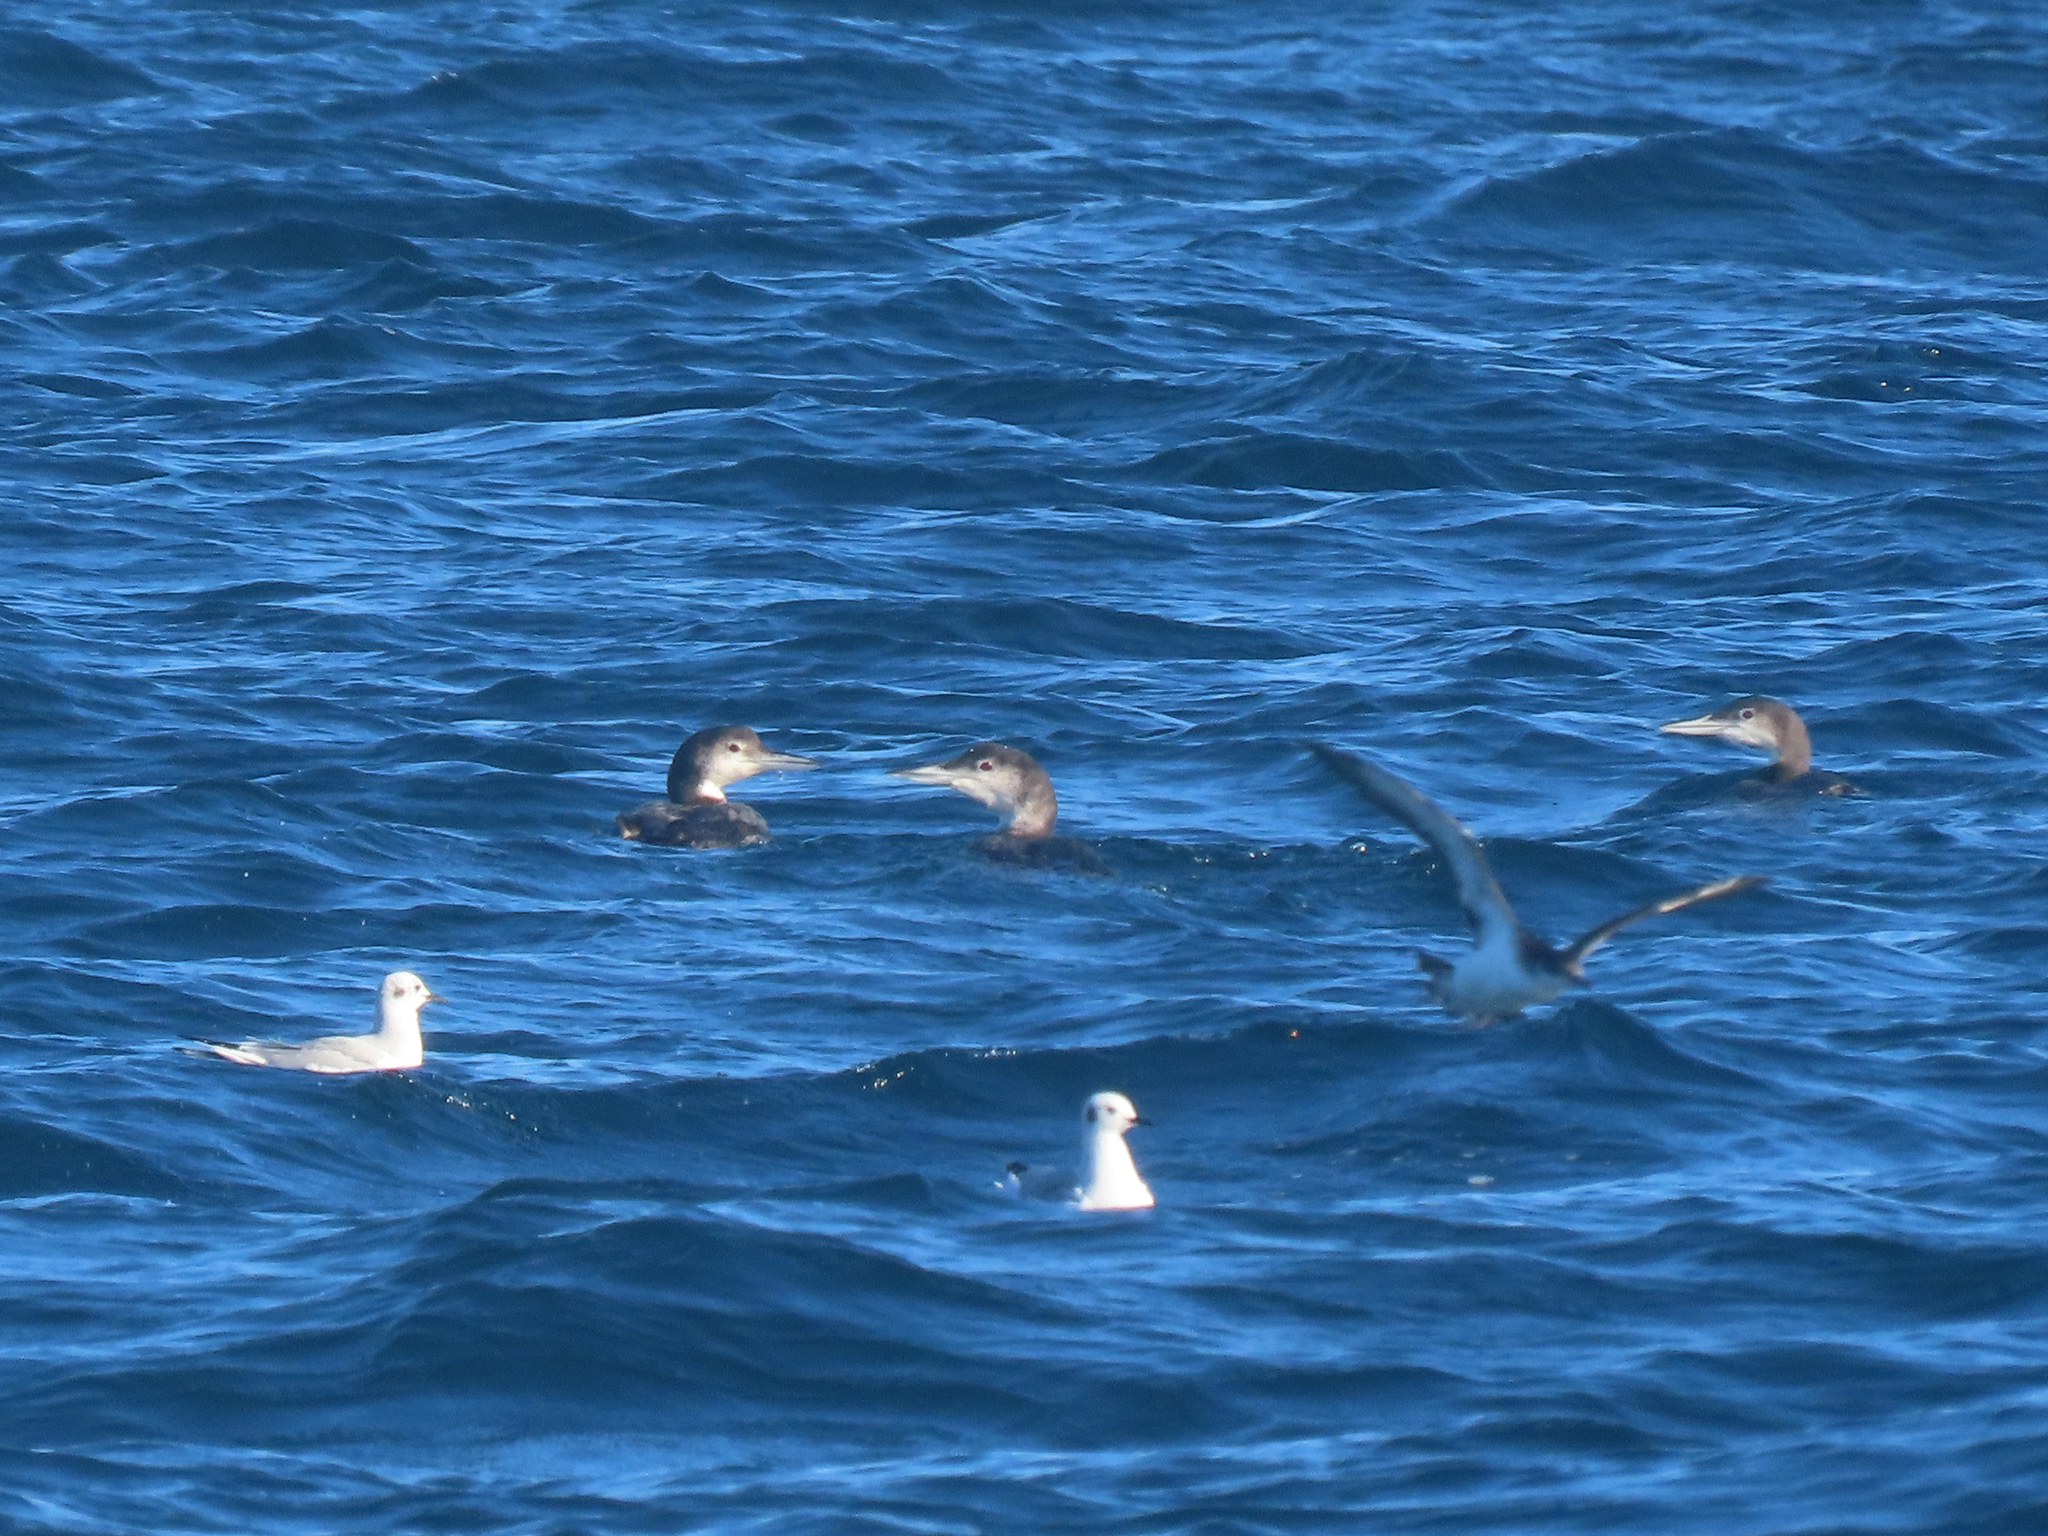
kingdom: Animalia
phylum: Chordata
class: Aves
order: Gaviiformes
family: Gaviidae
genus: Gavia
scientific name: Gavia immer
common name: Common loon
